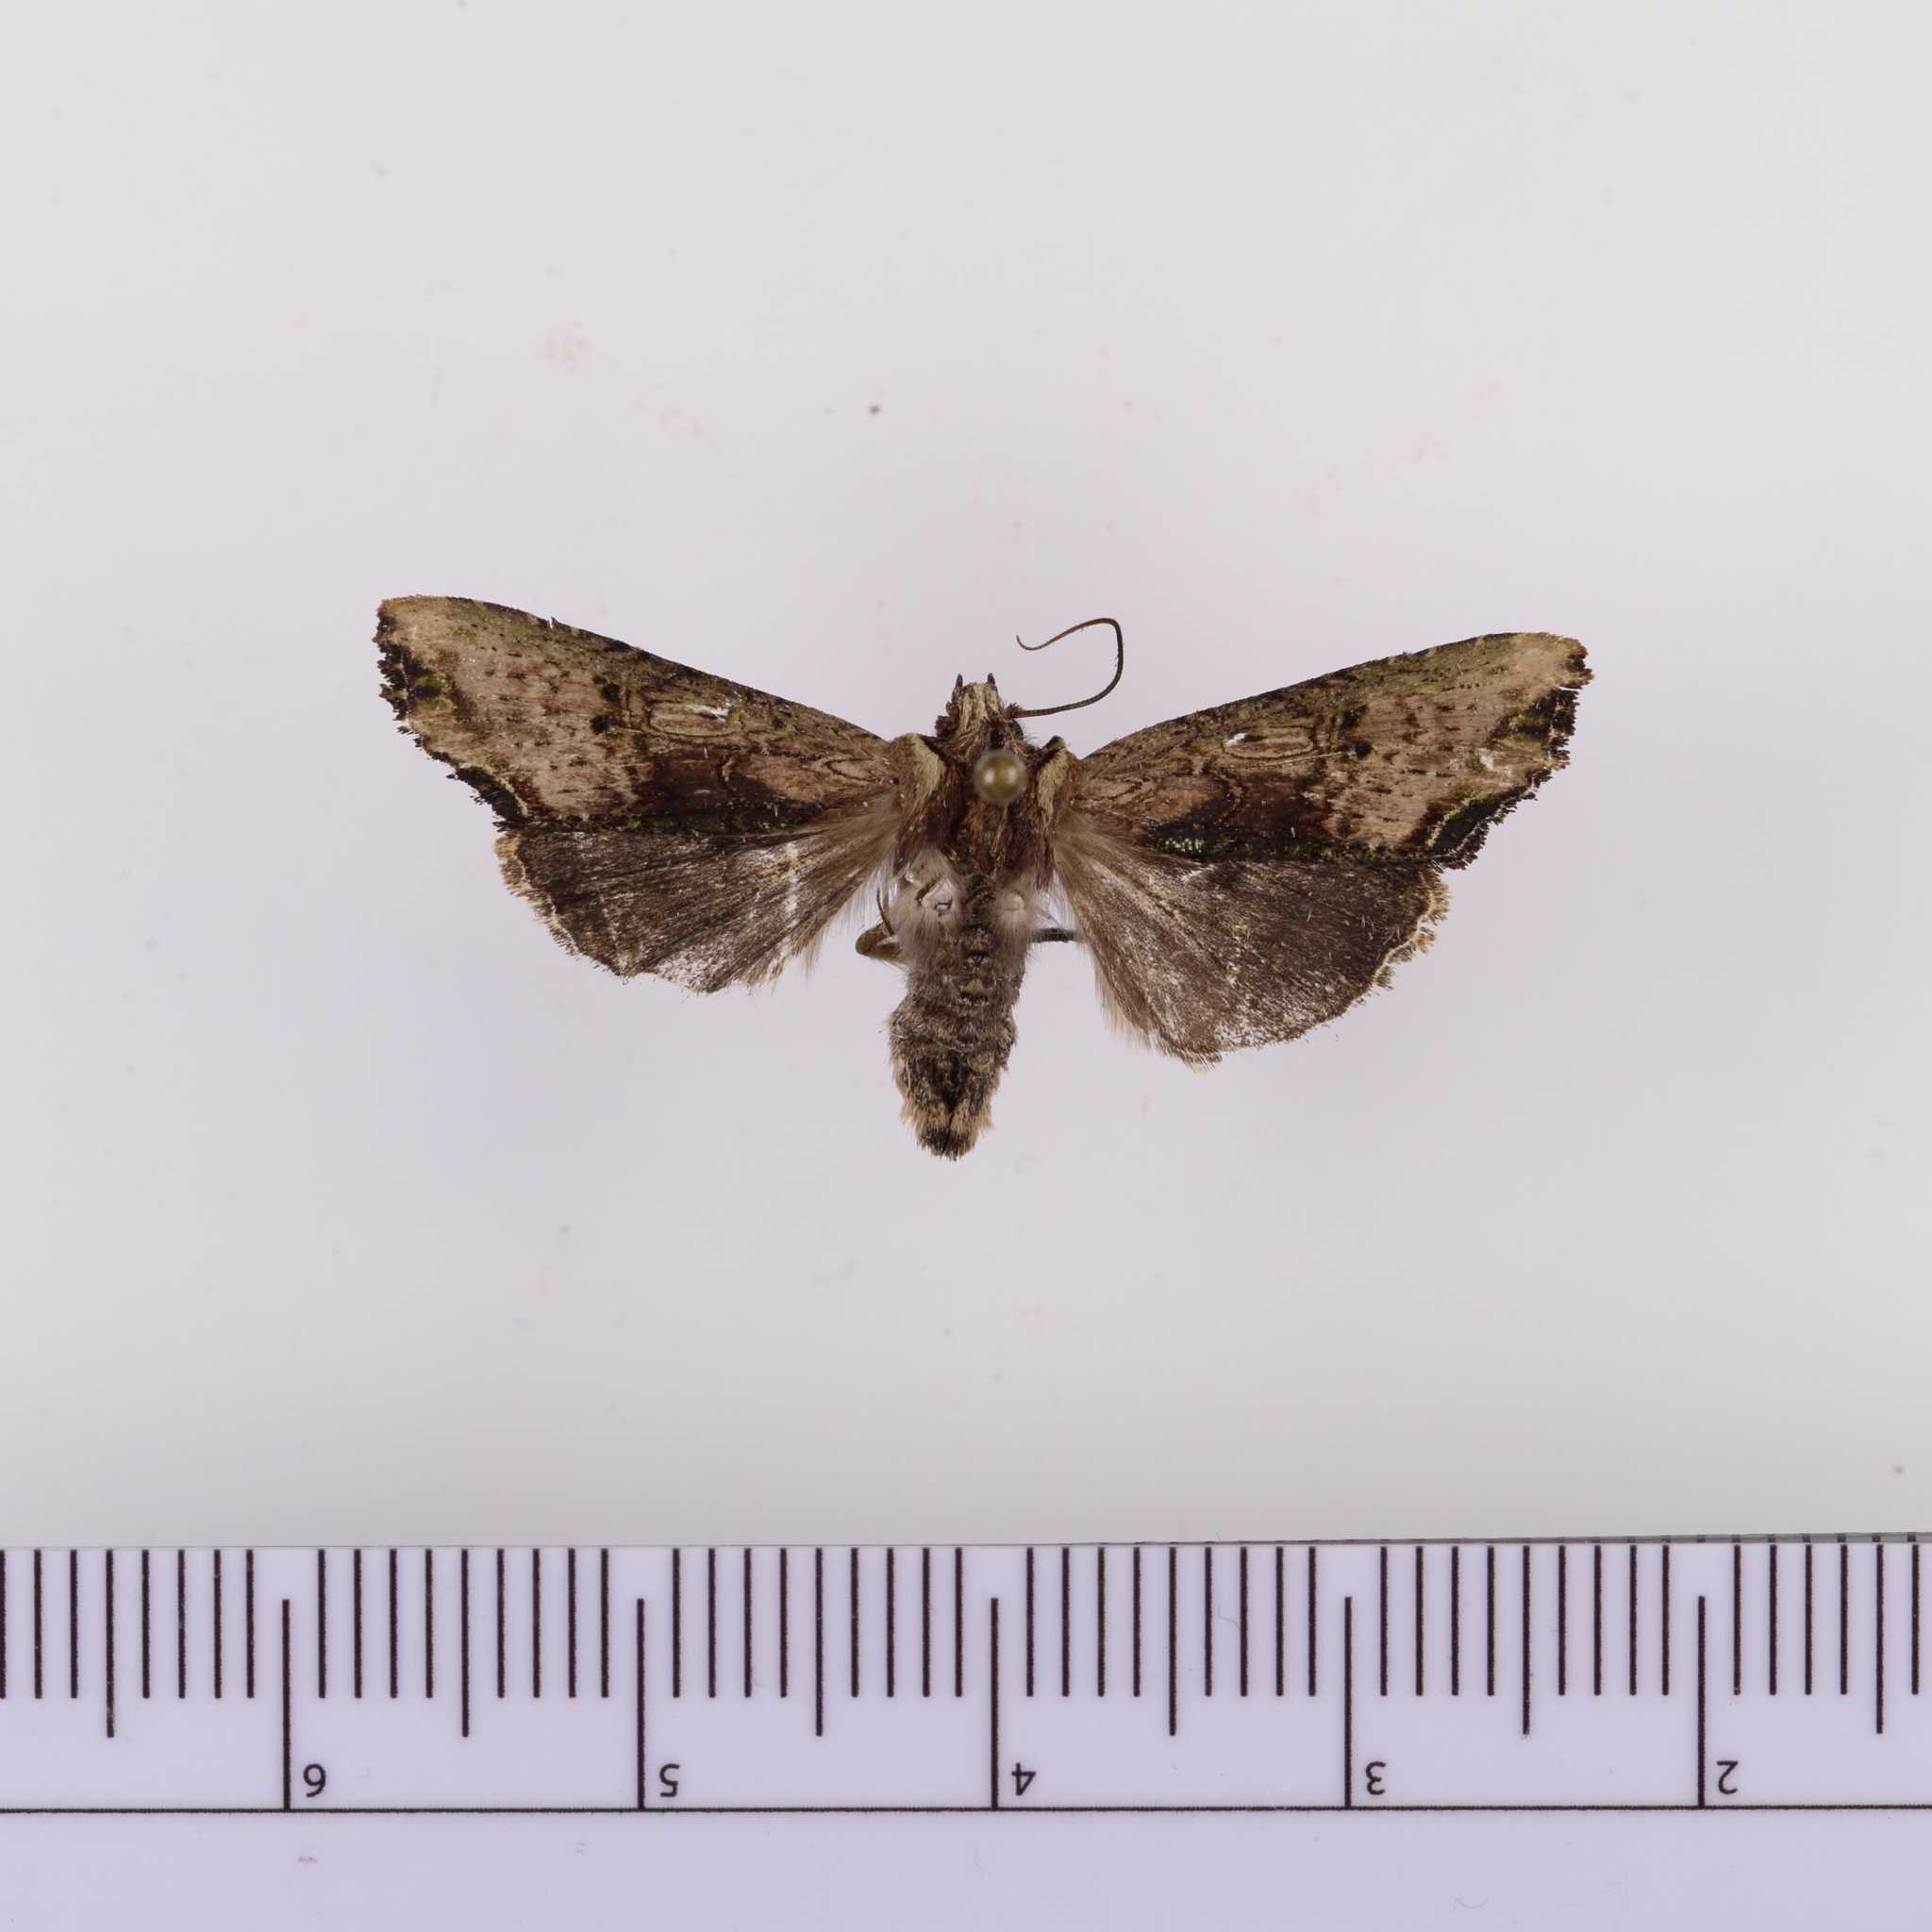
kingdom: Animalia
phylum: Arthropoda
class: Insecta
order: Lepidoptera
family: Noctuidae
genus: Meterana
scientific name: Meterana coeleno
